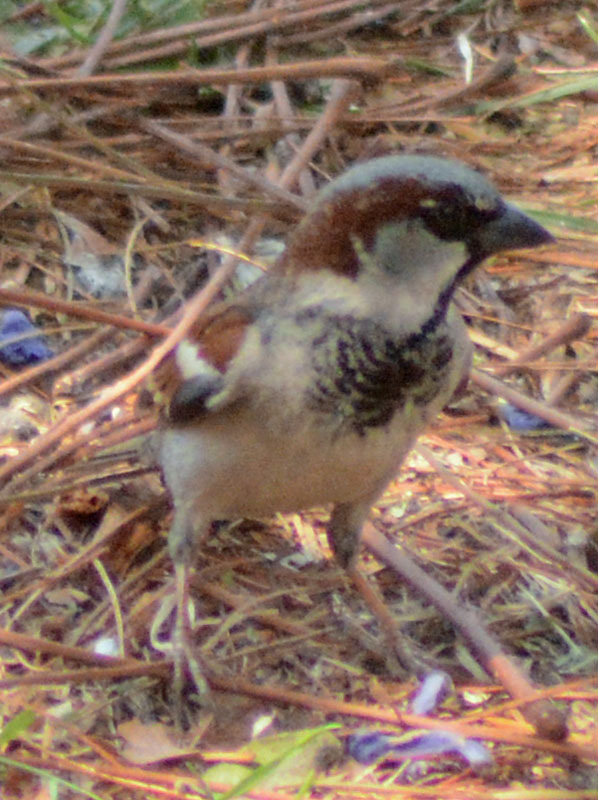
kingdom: Animalia
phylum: Chordata
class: Aves
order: Passeriformes
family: Passeridae
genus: Passer
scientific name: Passer domesticus
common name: House sparrow
